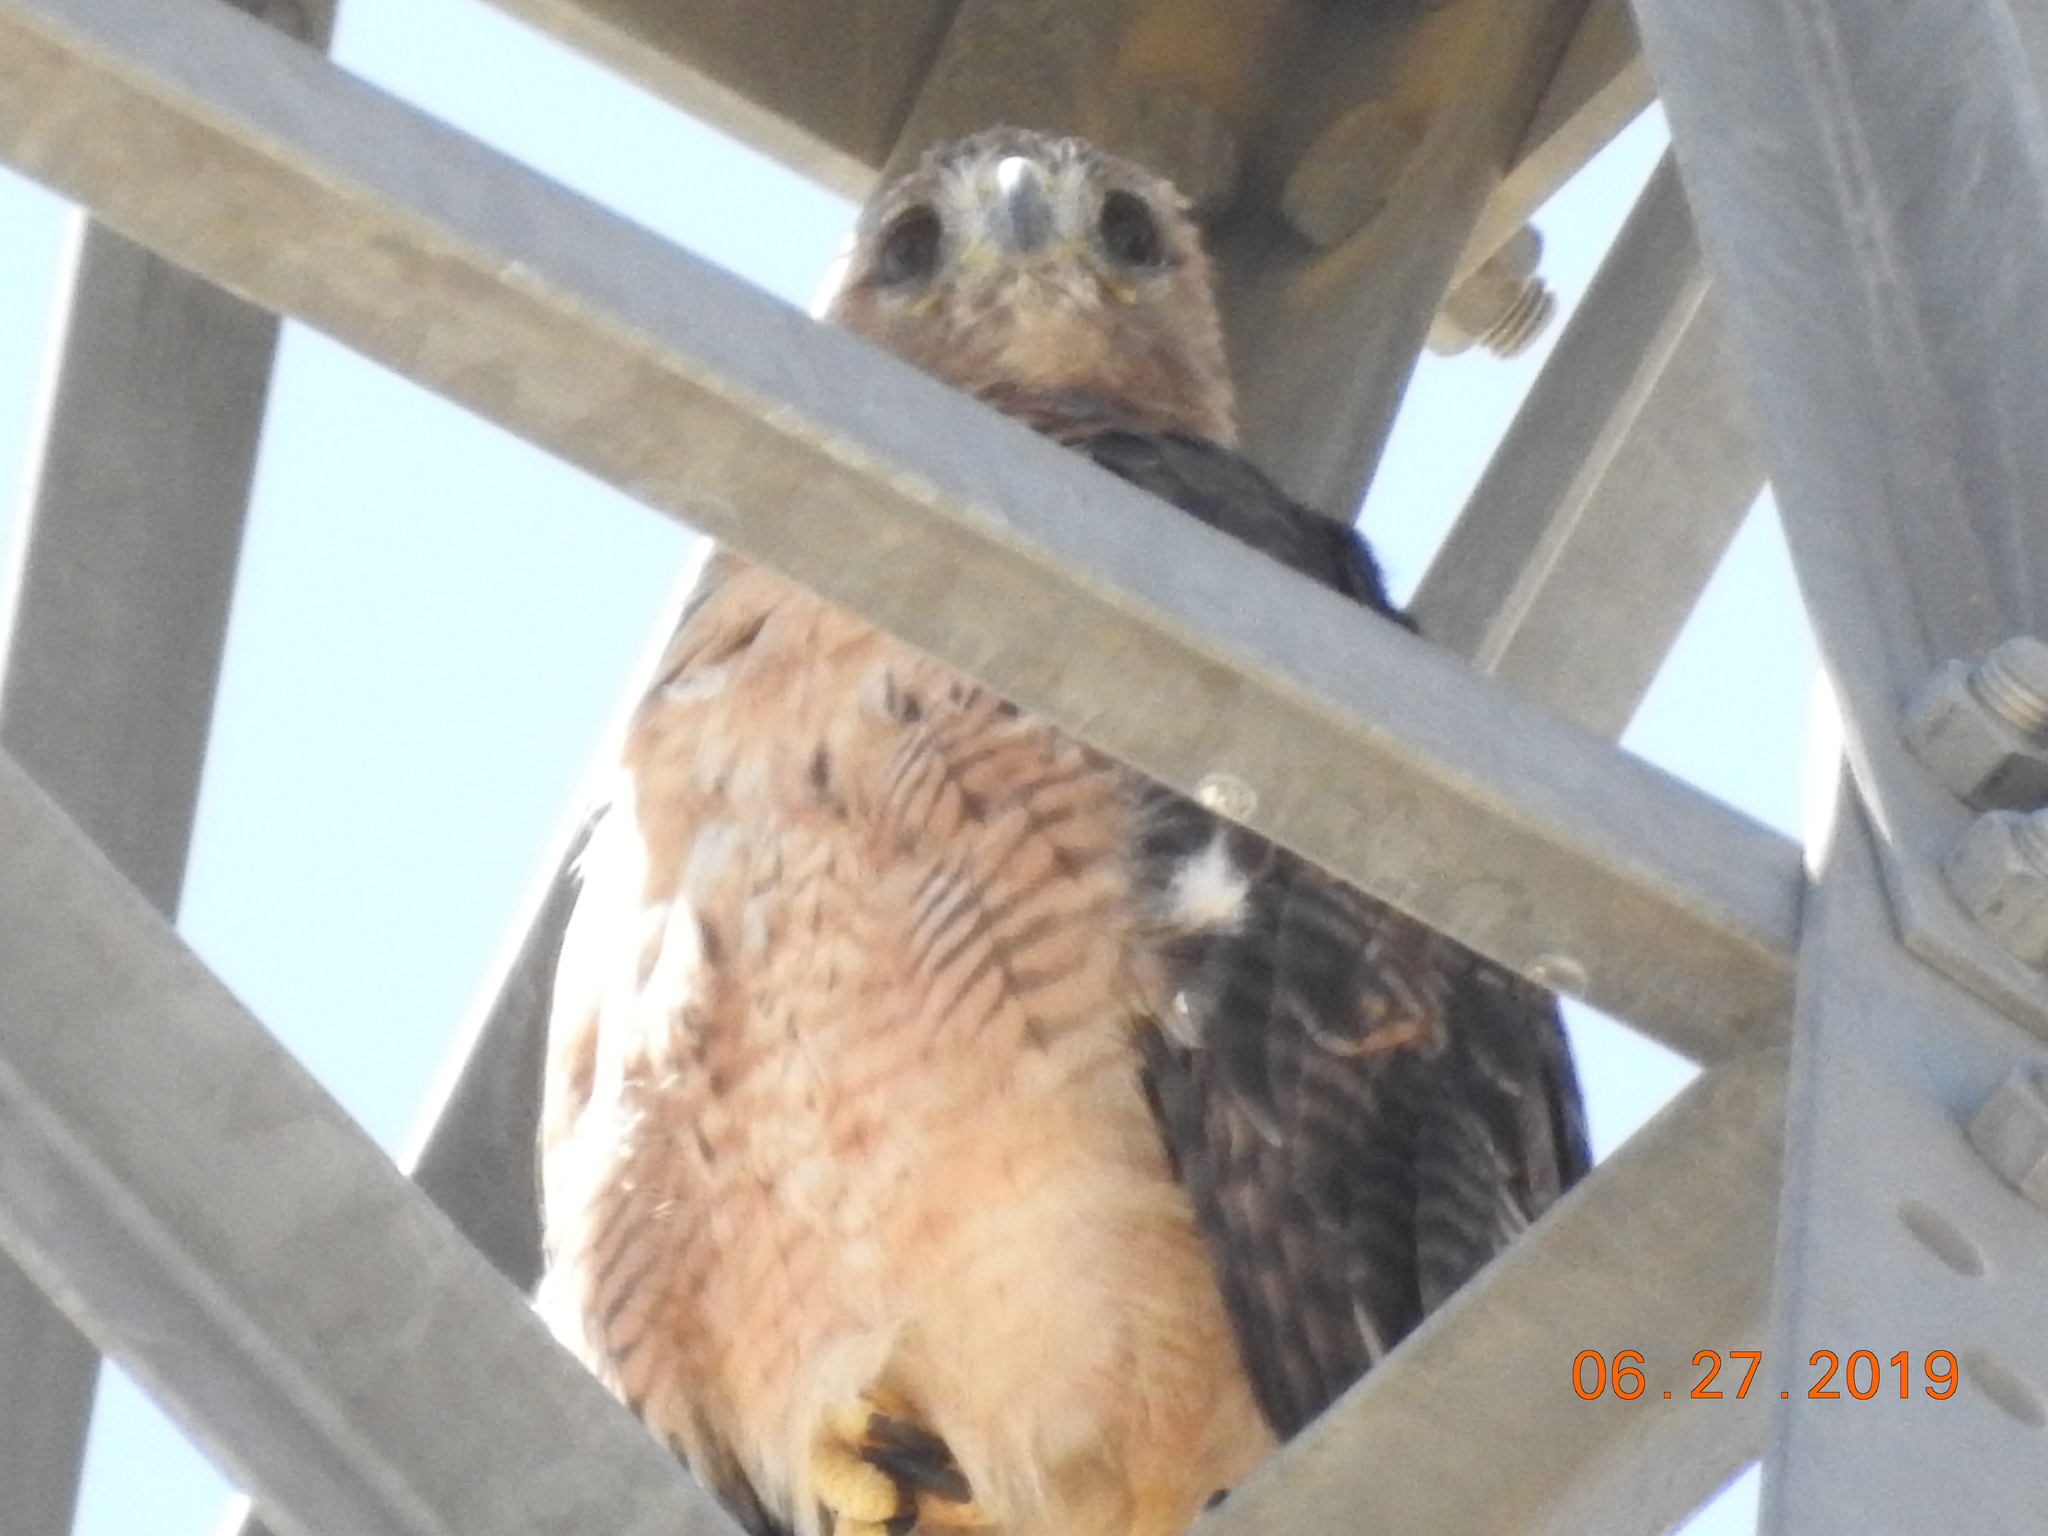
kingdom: Animalia
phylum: Chordata
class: Aves
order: Accipitriformes
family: Accipitridae
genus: Buteo
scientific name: Buteo jamaicensis
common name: Red-tailed hawk
